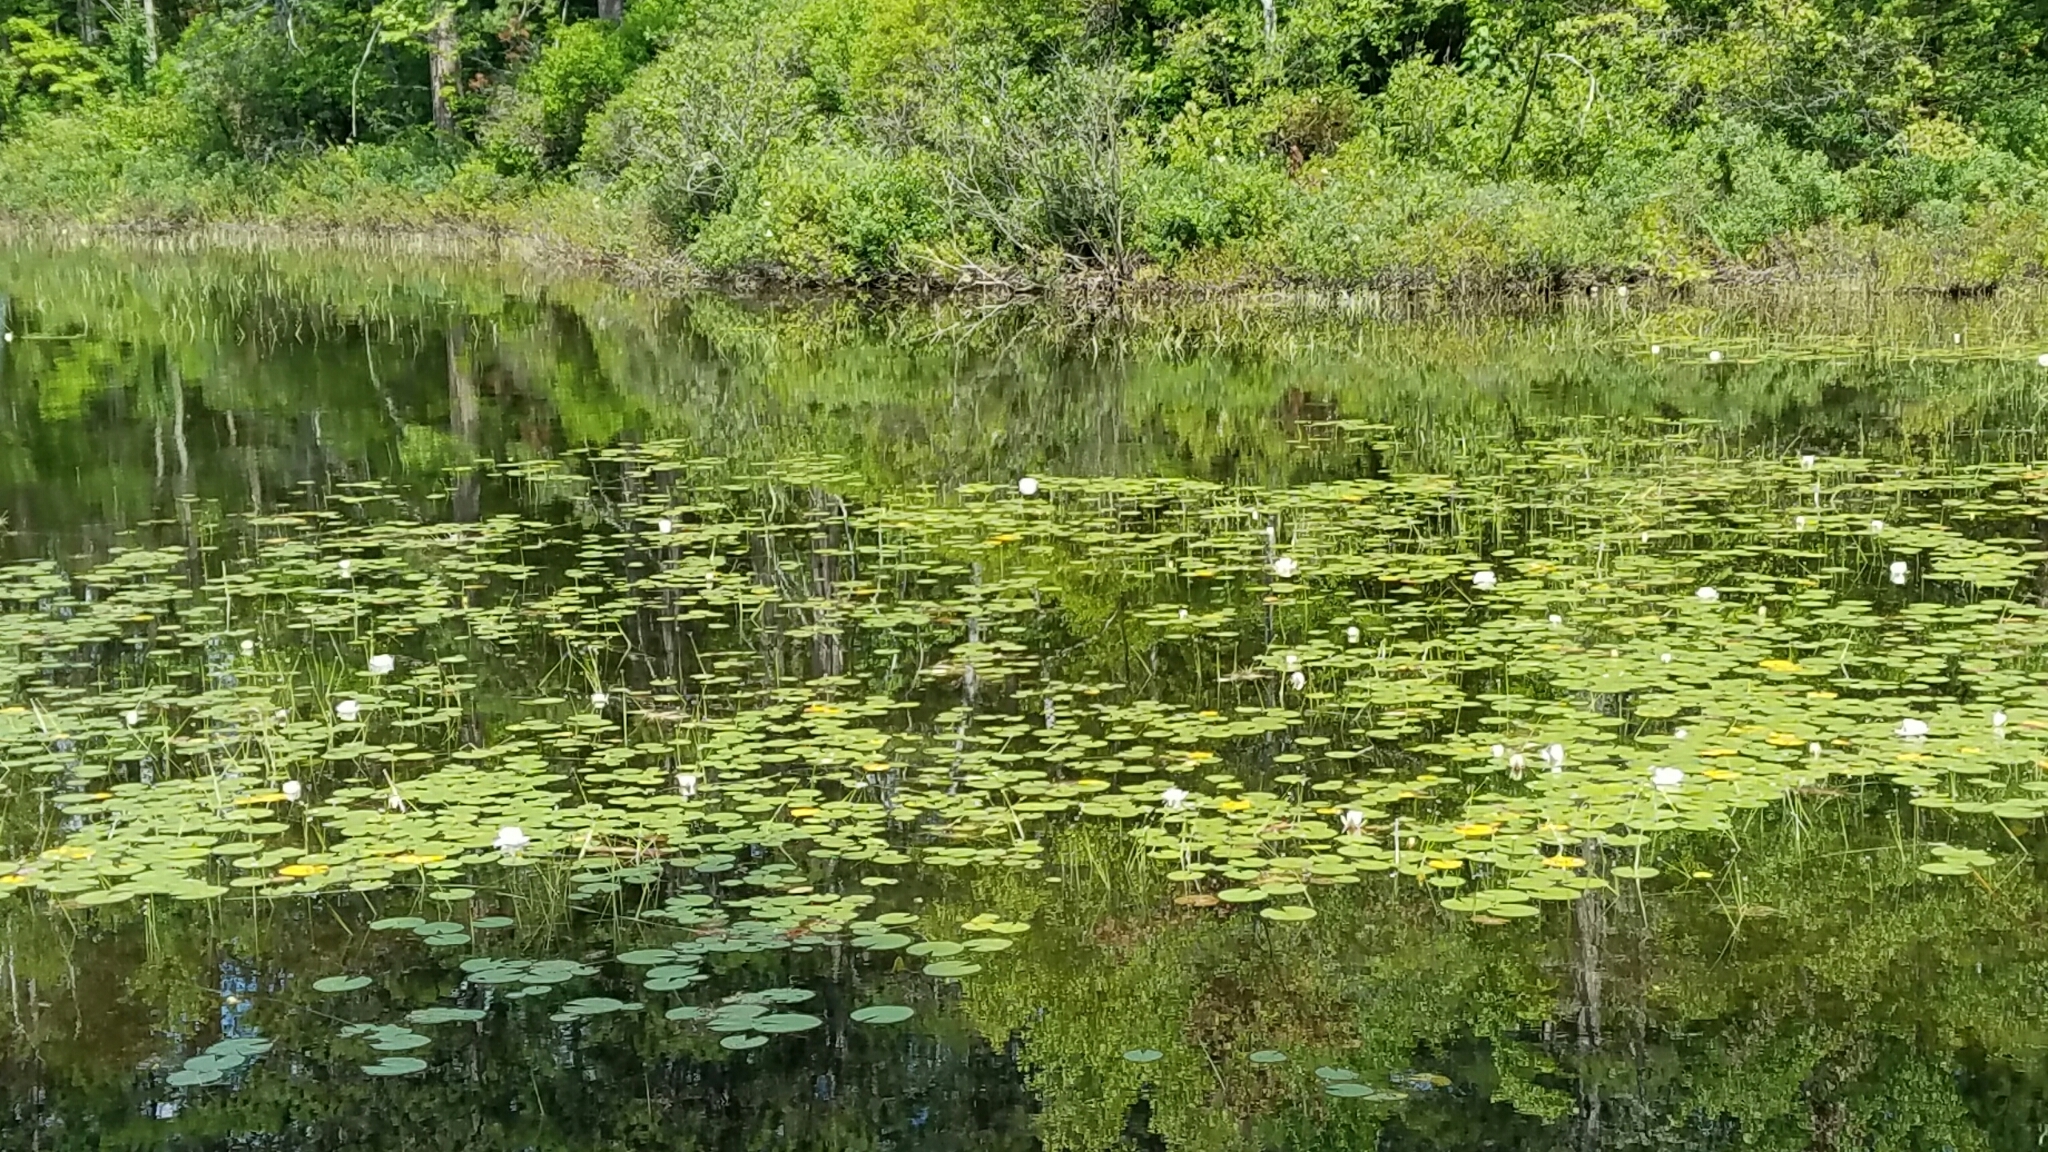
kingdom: Plantae
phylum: Tracheophyta
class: Magnoliopsida
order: Nymphaeales
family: Nymphaeaceae
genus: Nymphaea
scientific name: Nymphaea odorata
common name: Fragrant water-lily
